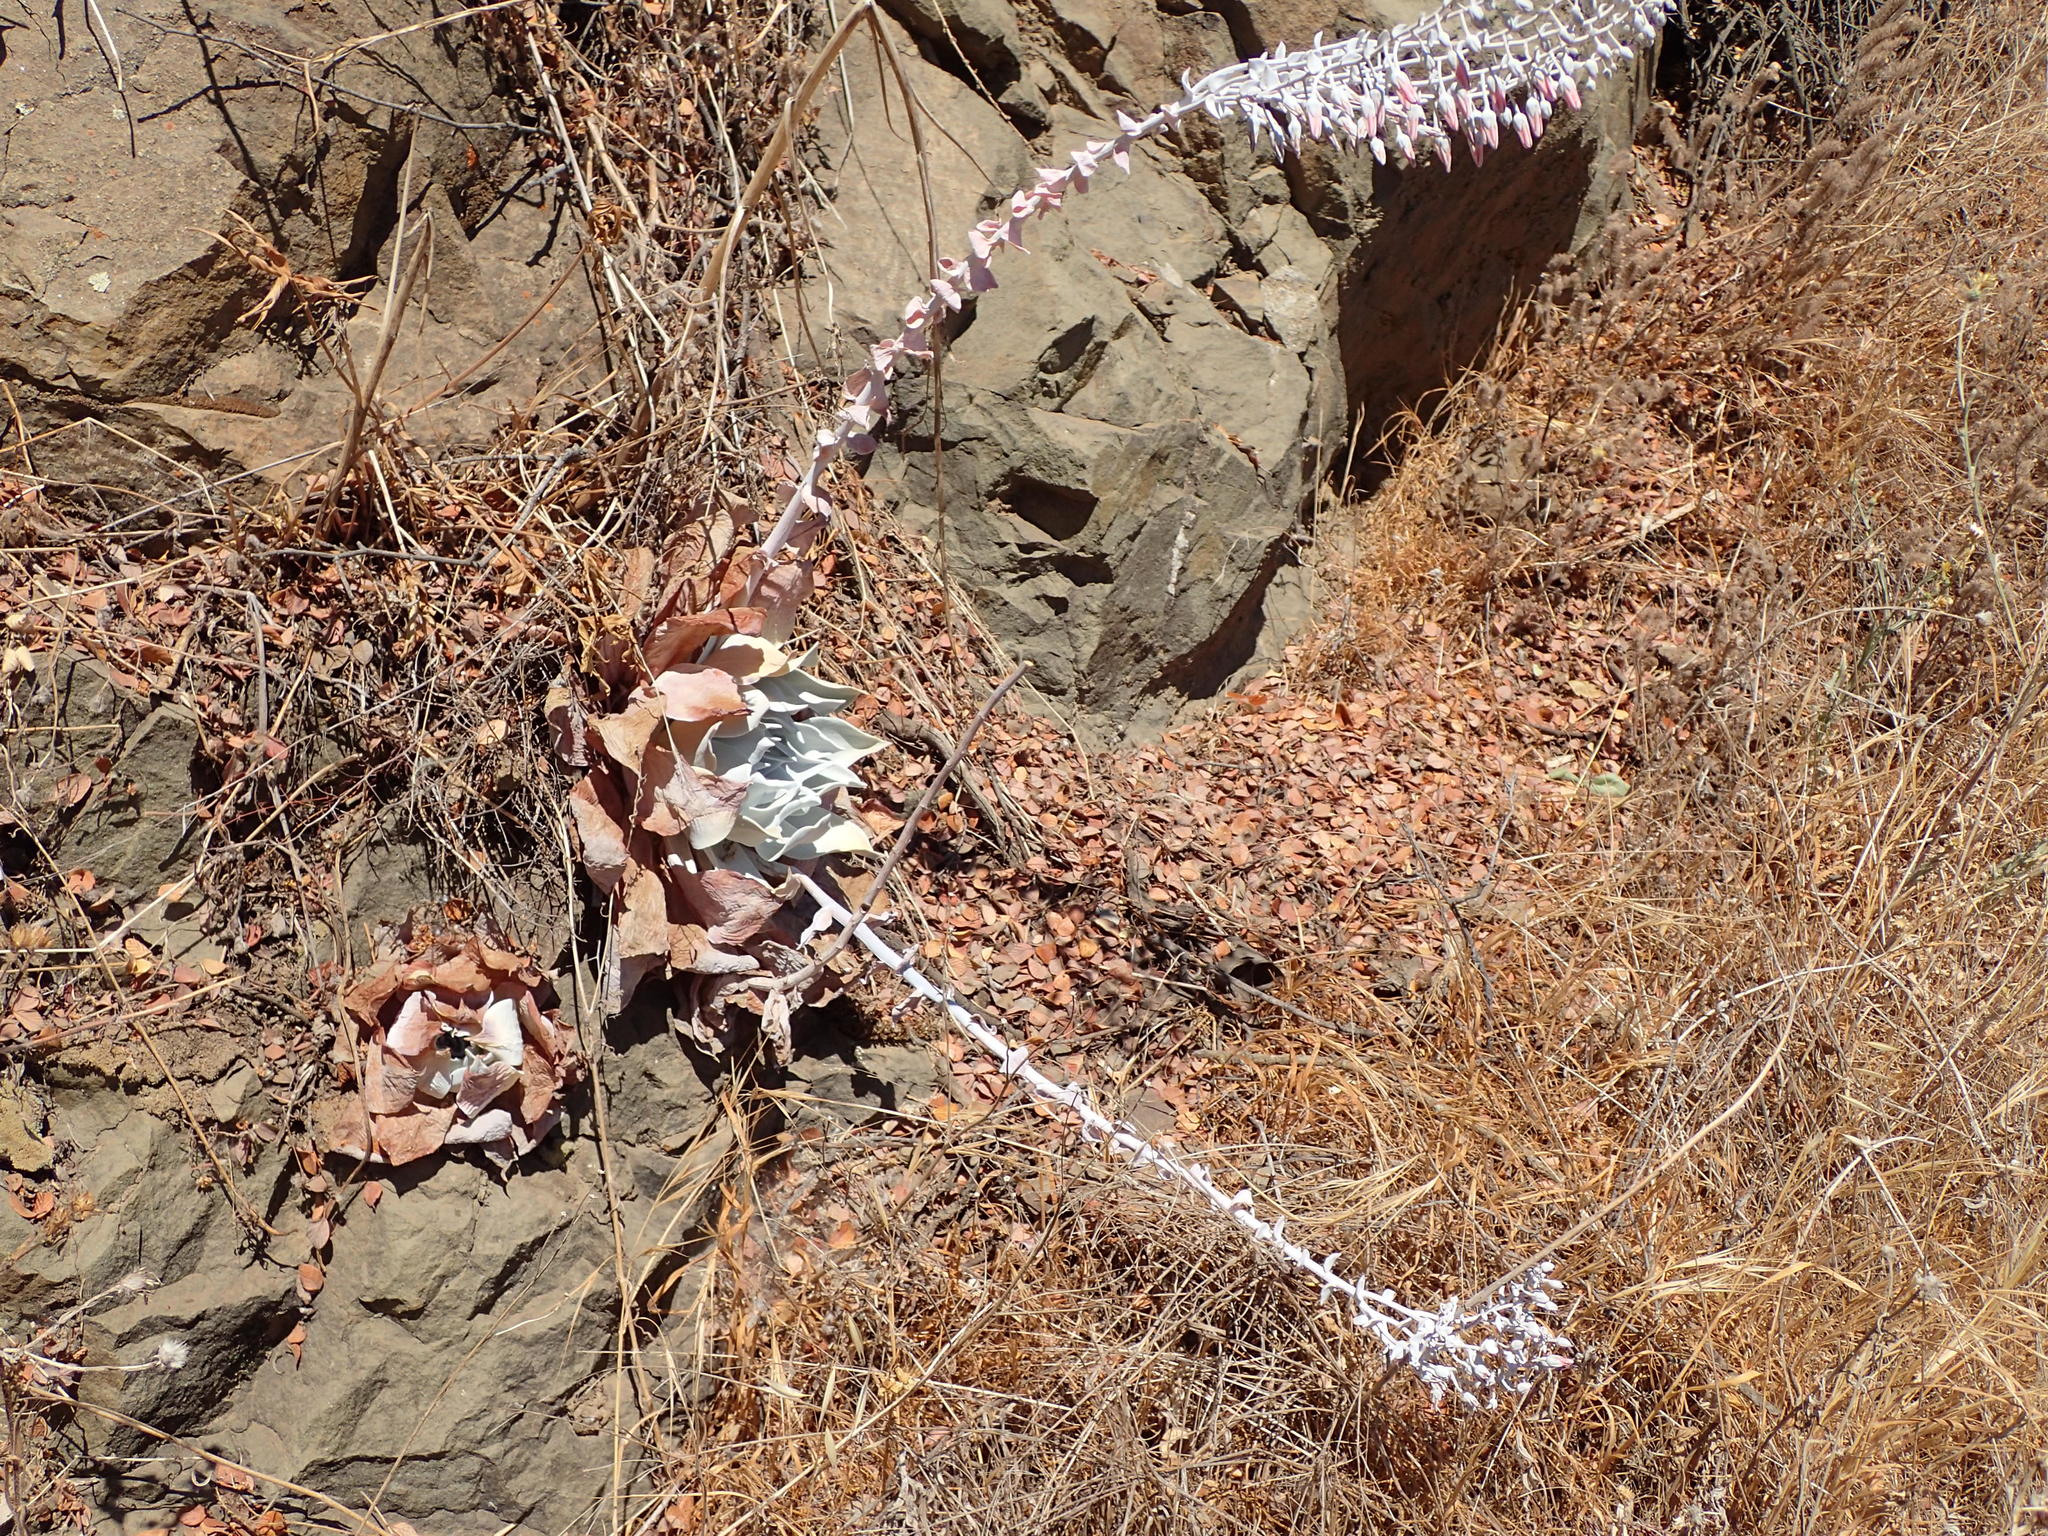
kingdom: Plantae
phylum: Tracheophyta
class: Magnoliopsida
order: Saxifragales
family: Crassulaceae
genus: Dudleya
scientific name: Dudleya pulverulenta
